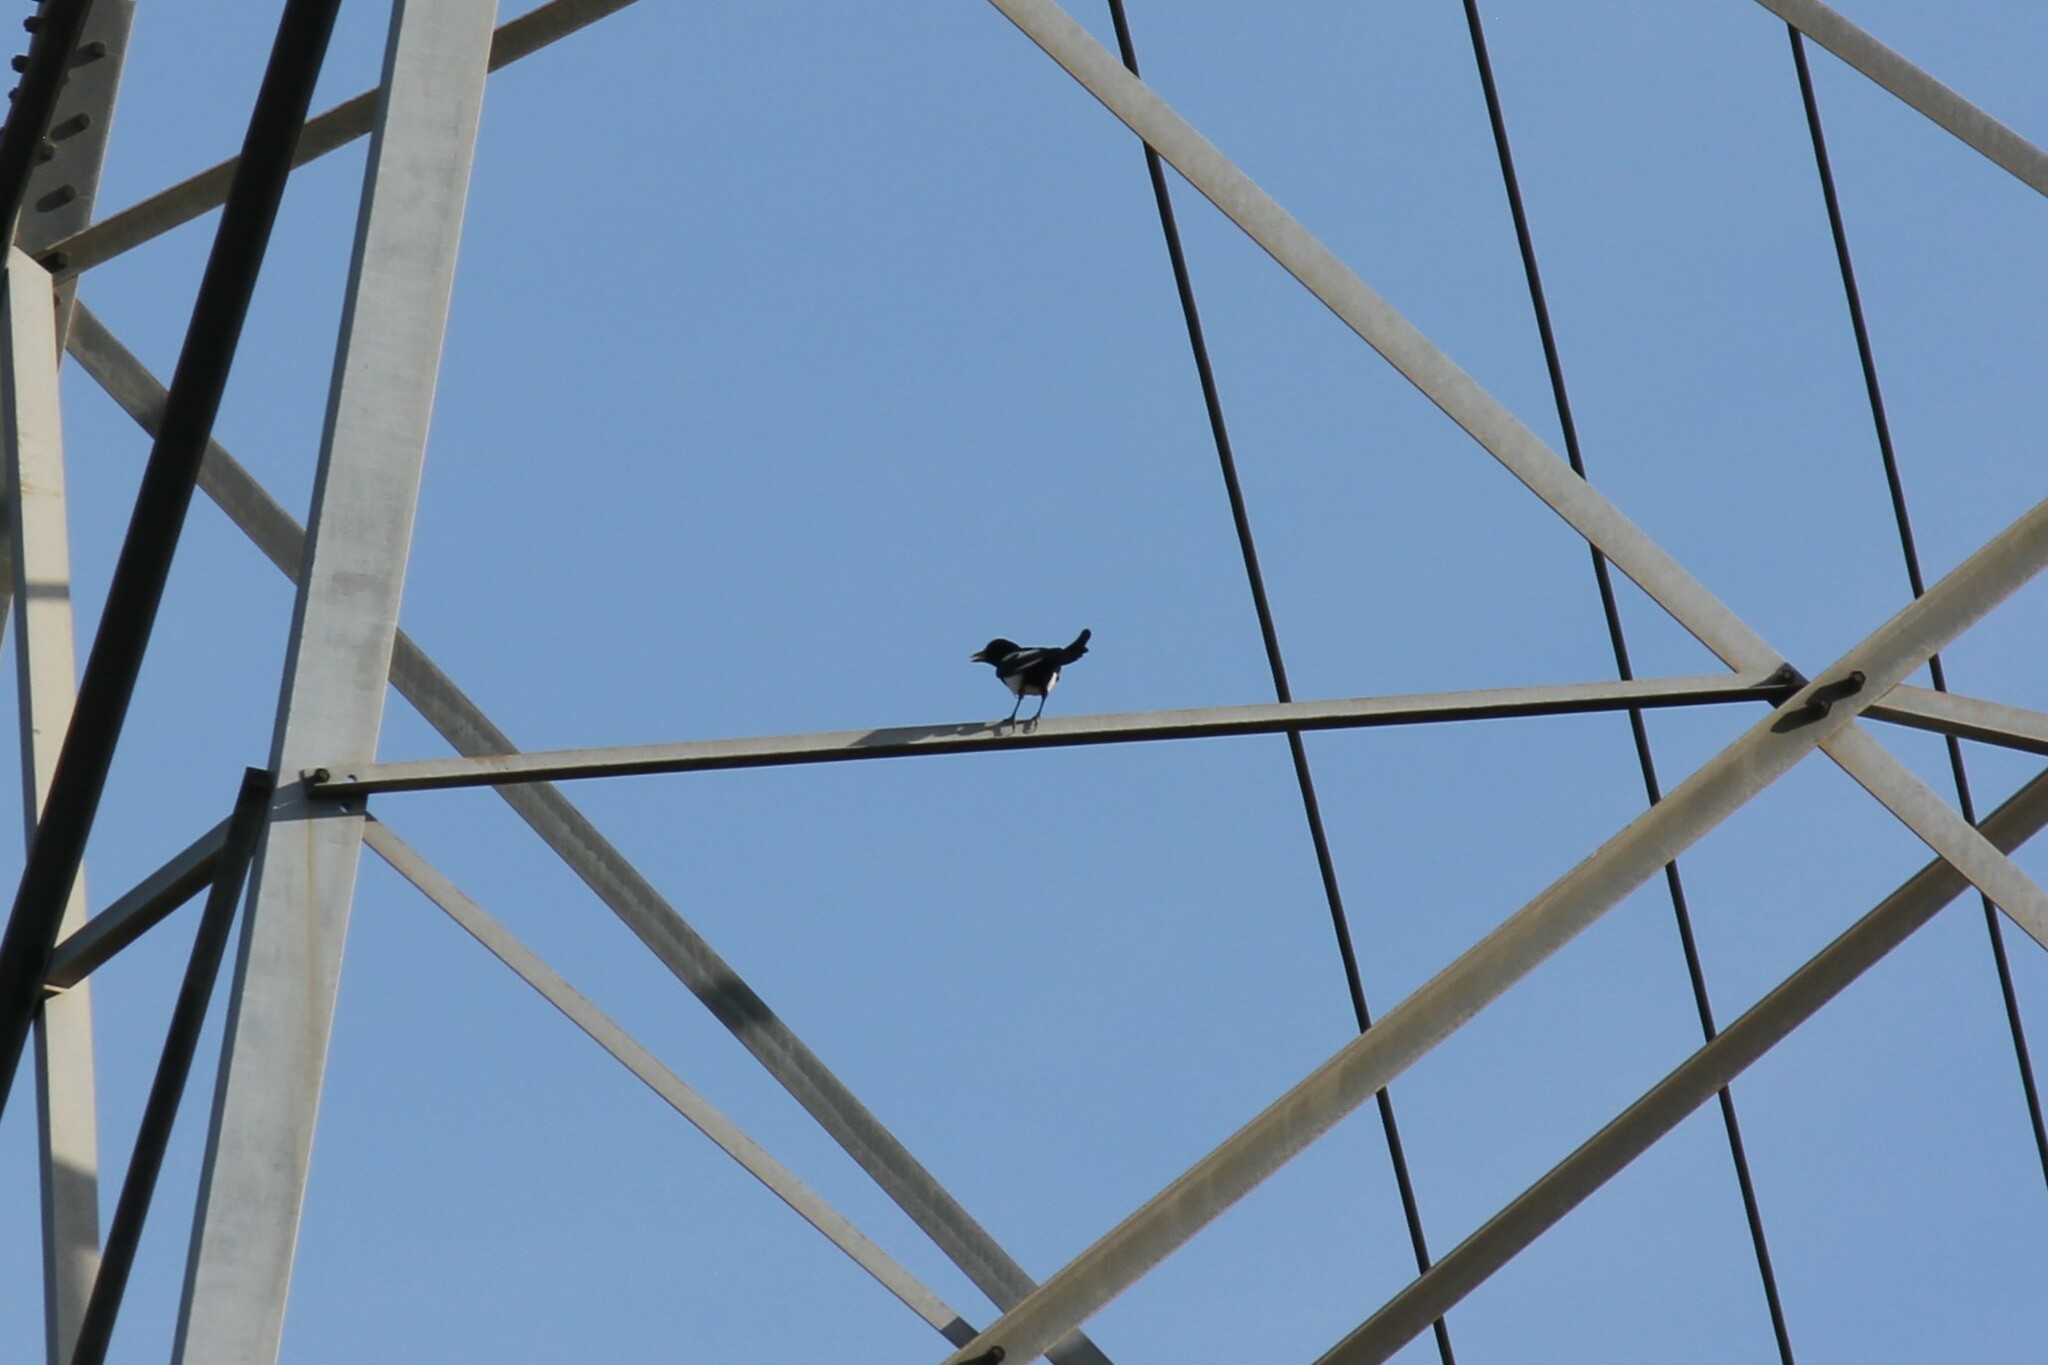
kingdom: Animalia
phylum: Chordata
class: Aves
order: Passeriformes
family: Corvidae
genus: Pica
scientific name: Pica nuttalli
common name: Yellow-billed magpie
